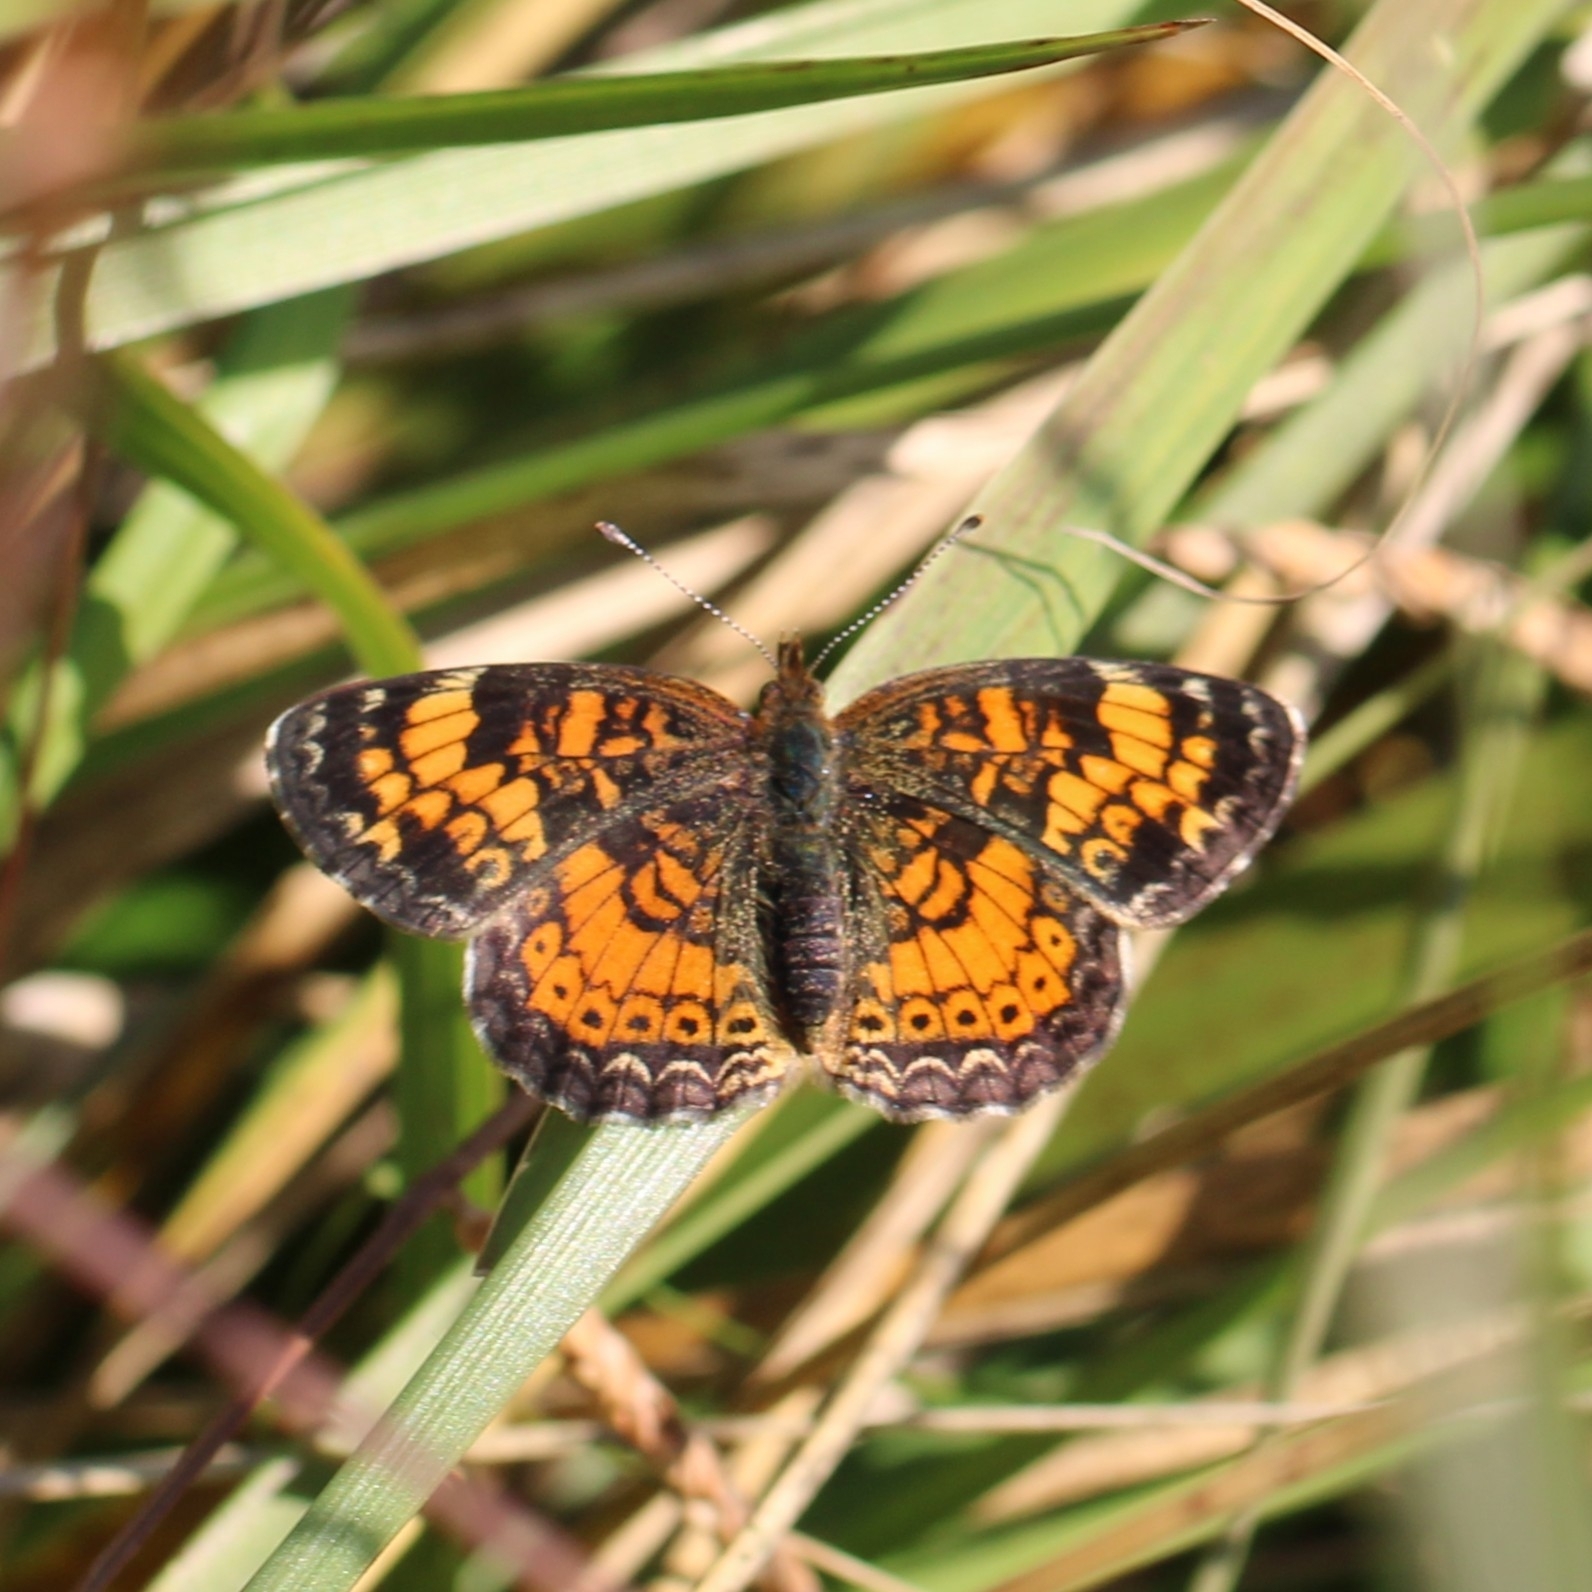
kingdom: Animalia
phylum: Arthropoda
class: Insecta
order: Lepidoptera
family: Nymphalidae
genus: Phyciodes
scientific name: Phyciodes tharos
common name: Pearl crescent
